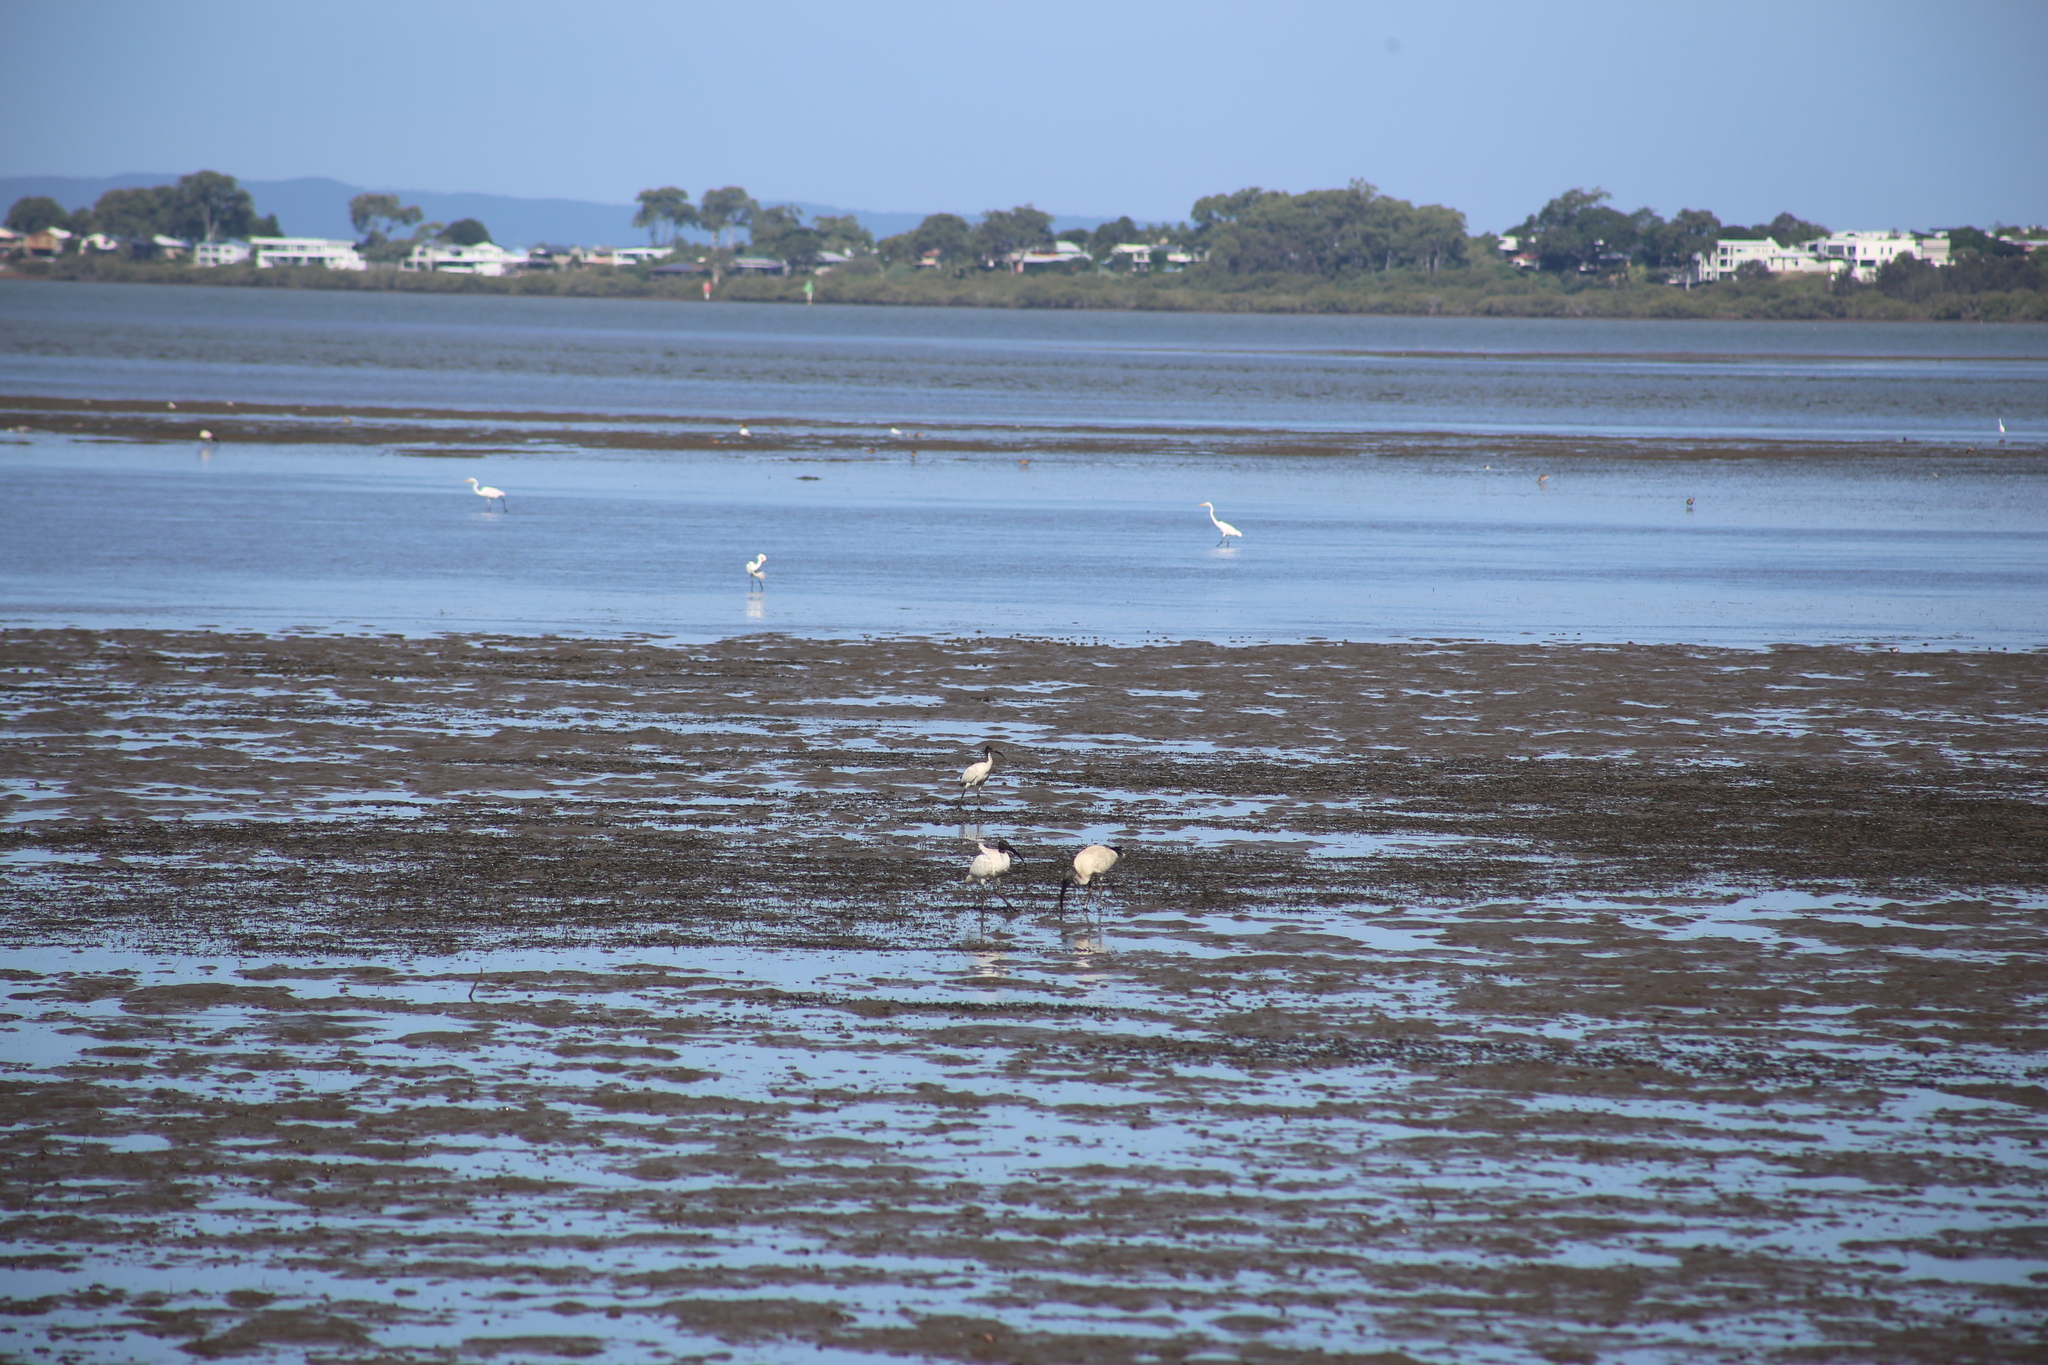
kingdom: Animalia
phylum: Chordata
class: Aves
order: Pelecaniformes
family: Threskiornithidae
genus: Threskiornis
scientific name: Threskiornis molucca
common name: Australian white ibis
